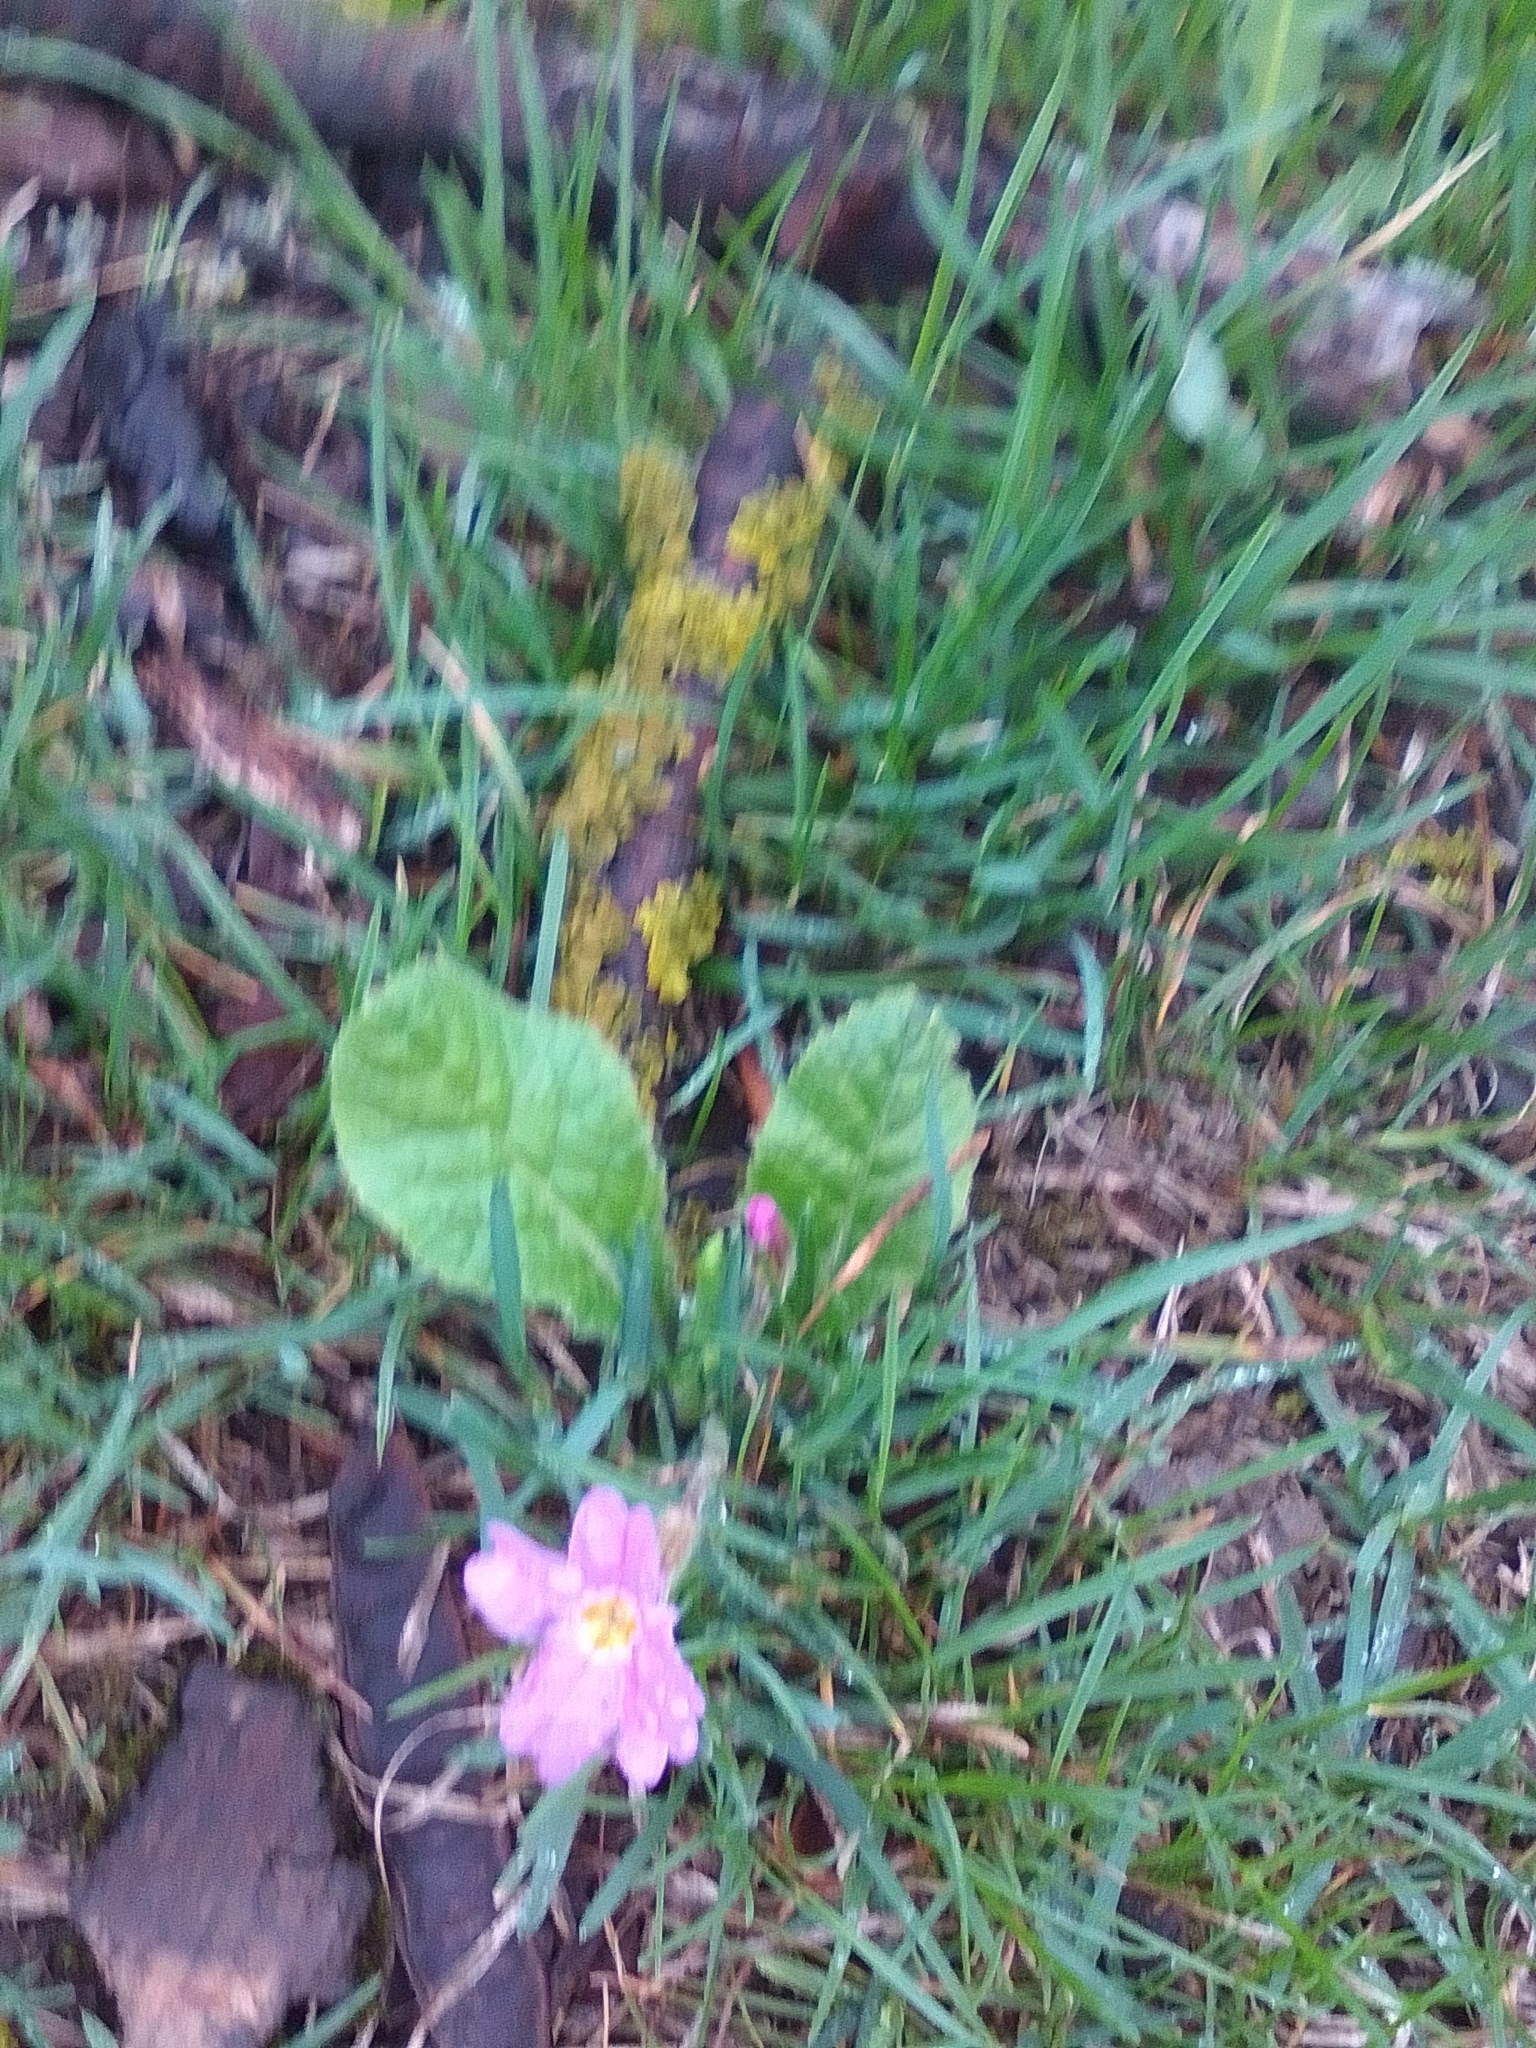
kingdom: Plantae
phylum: Tracheophyta
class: Magnoliopsida
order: Ericales
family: Primulaceae
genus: Primula
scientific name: Primula vulgaris
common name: Primrose
